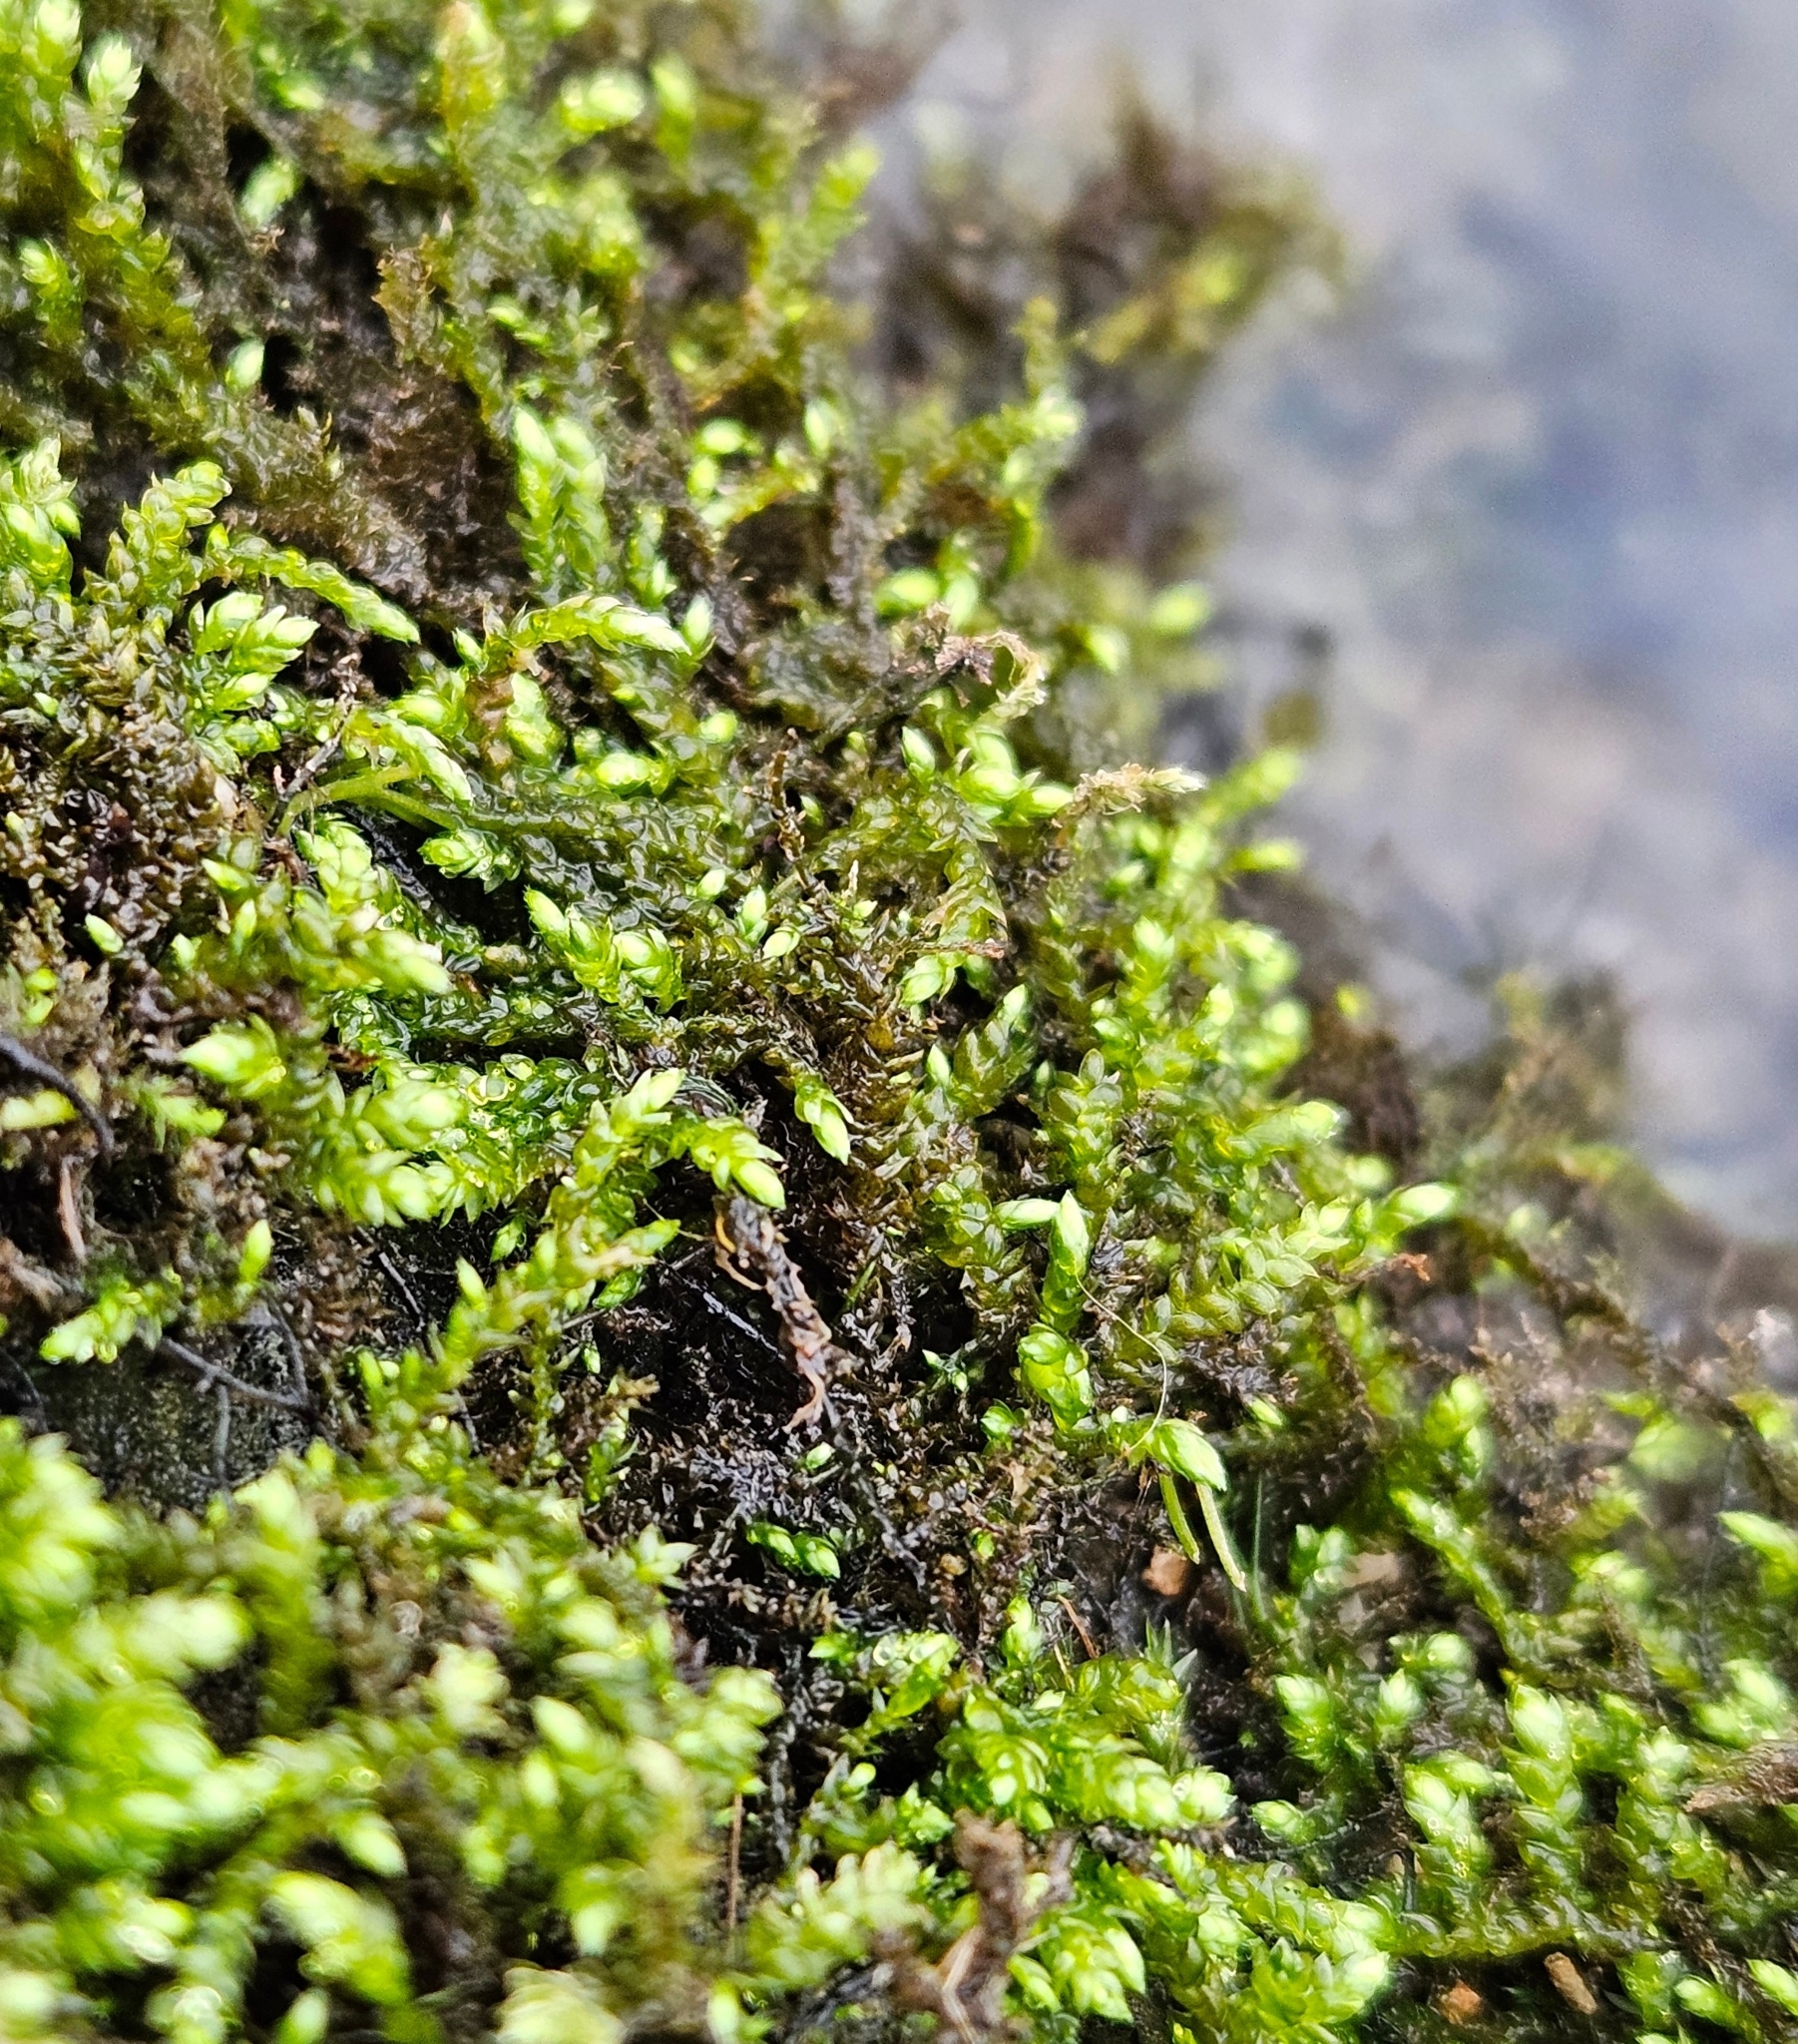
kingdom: Plantae
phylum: Bryophyta
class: Bryopsida
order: Hypnales
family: Brachytheciaceae
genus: Brachythecium
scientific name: Brachythecium rivulare
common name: River ragged moss
